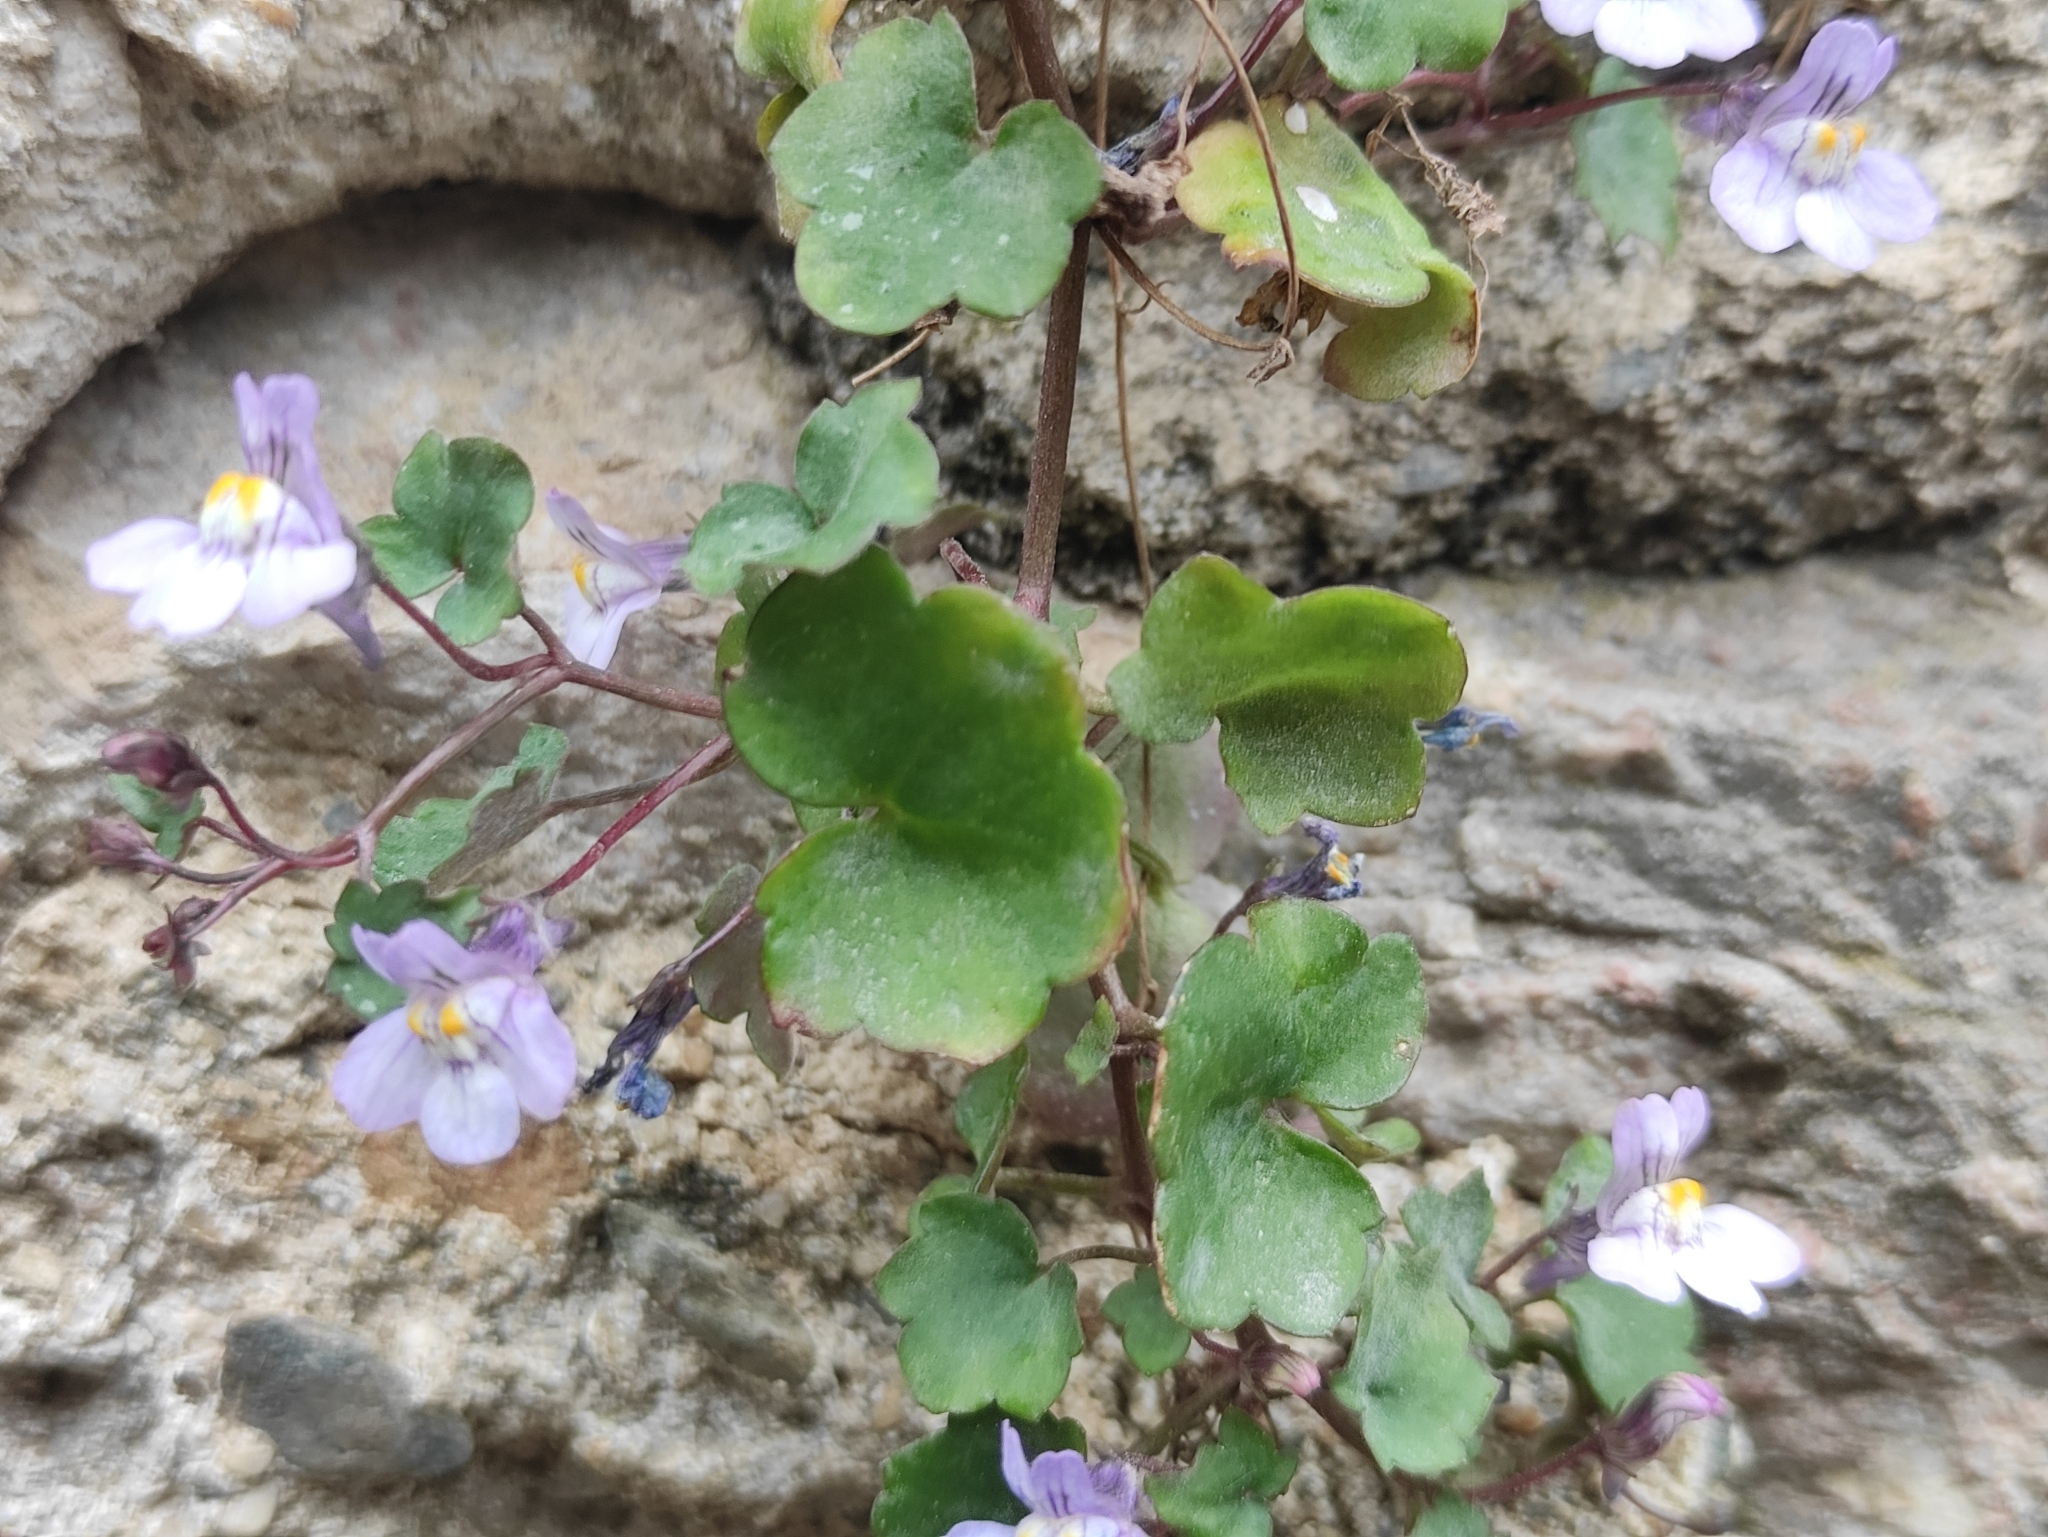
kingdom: Plantae
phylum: Tracheophyta
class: Magnoliopsida
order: Lamiales
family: Plantaginaceae
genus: Cymbalaria
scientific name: Cymbalaria muralis
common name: Ivy-leaved toadflax
